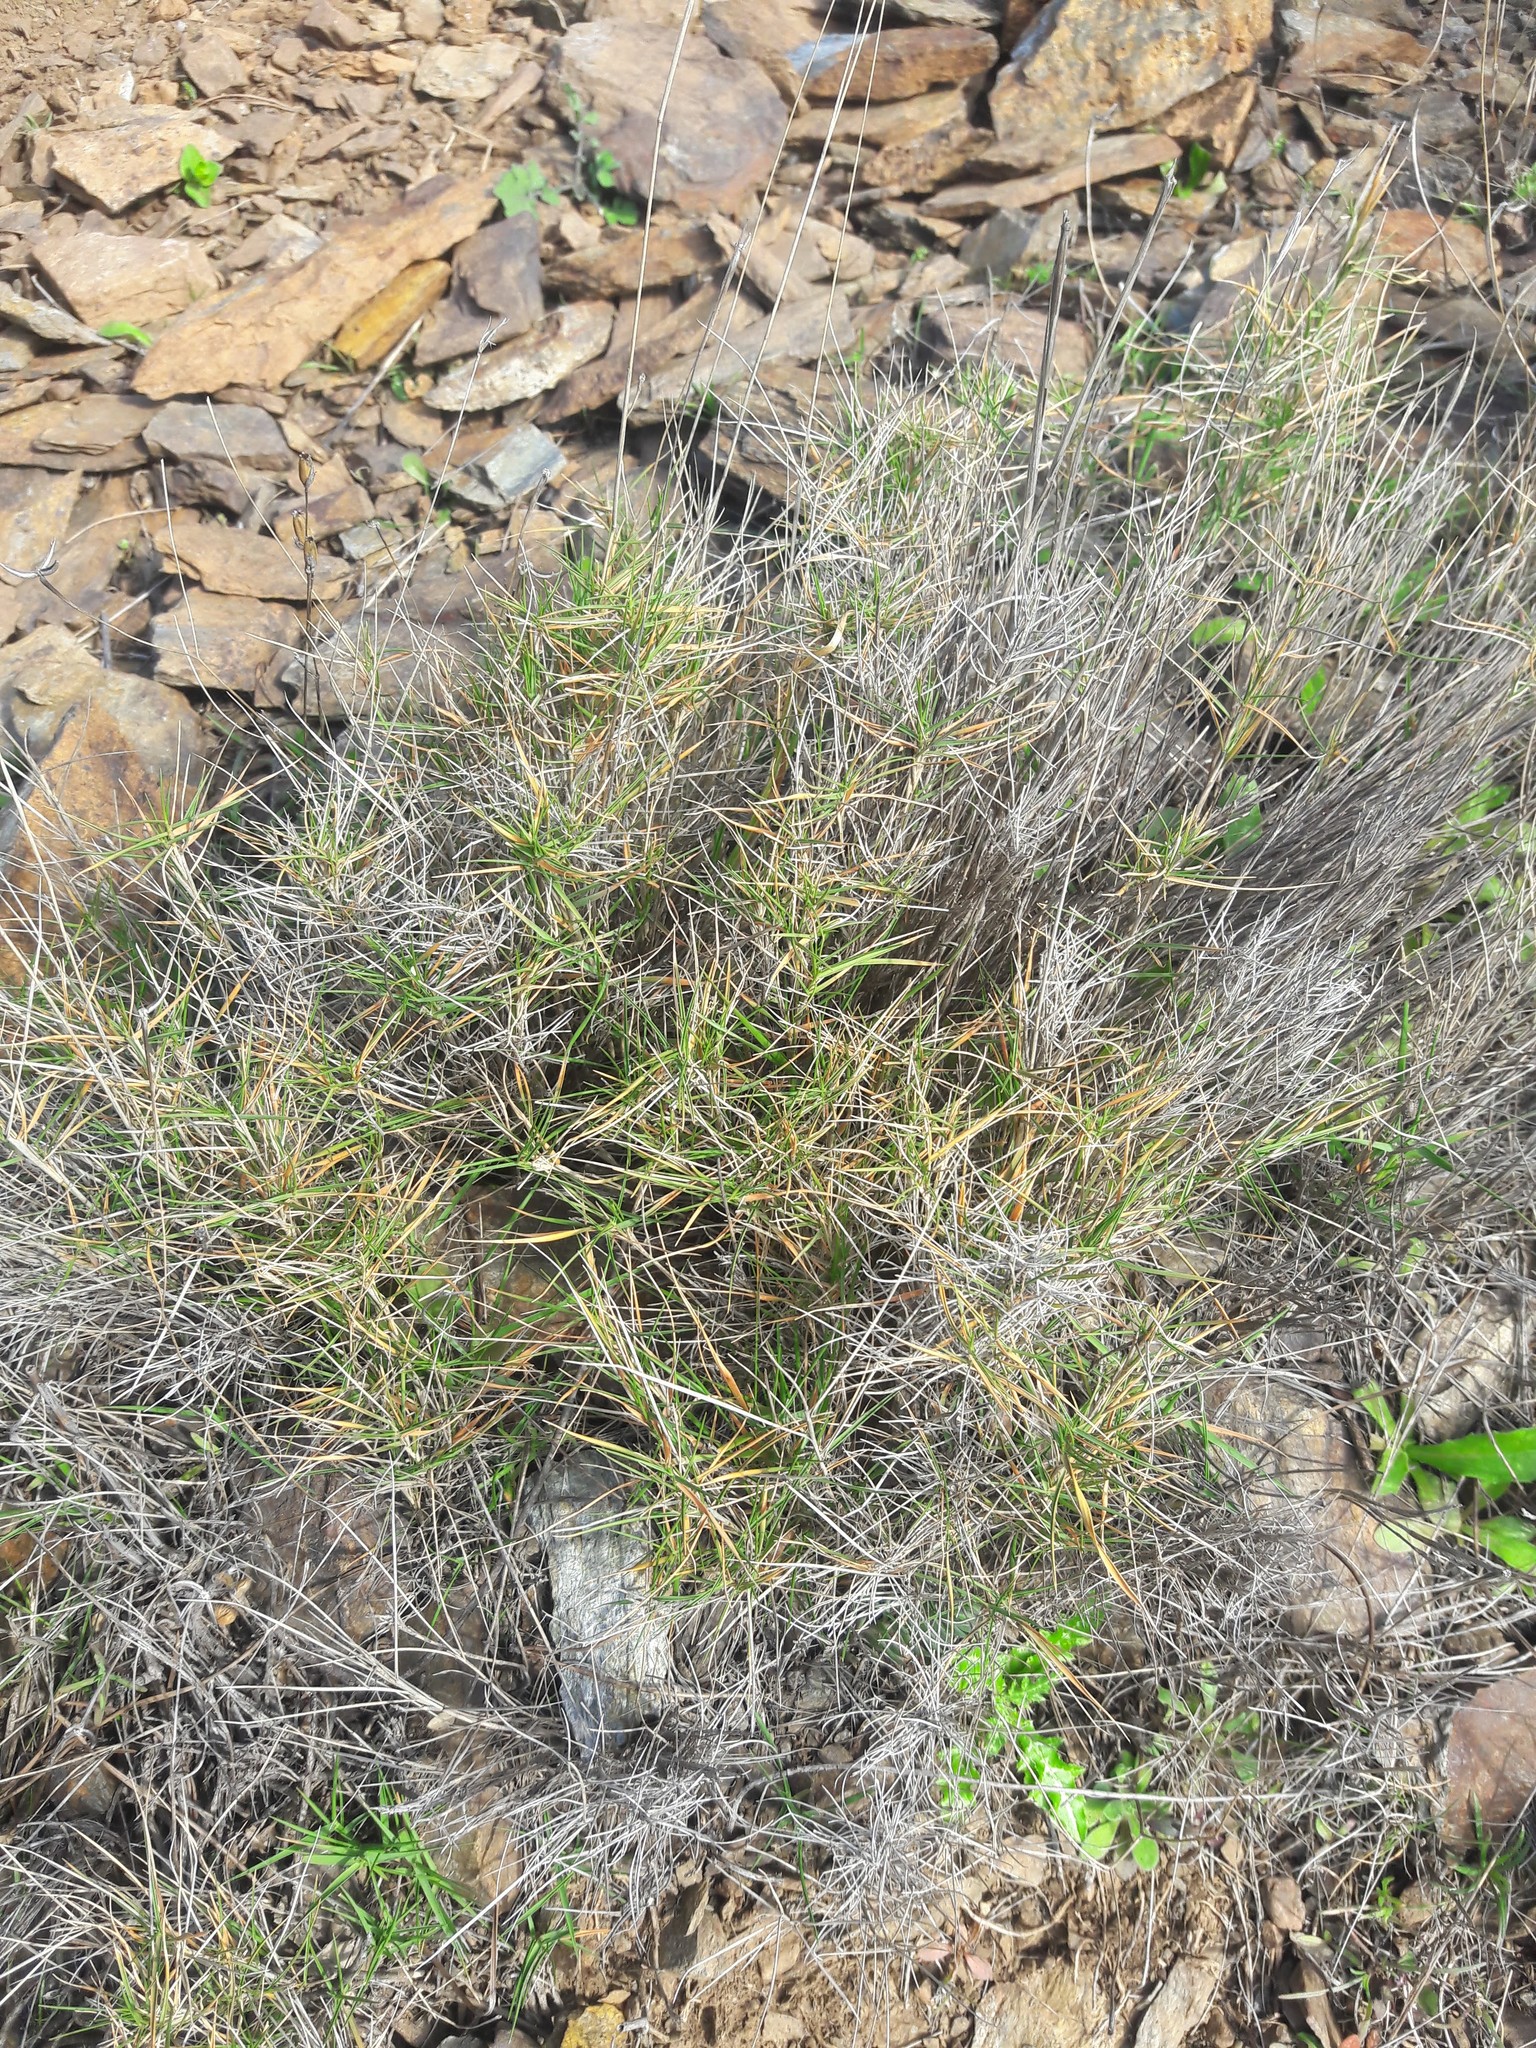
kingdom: Plantae
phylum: Tracheophyta
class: Liliopsida
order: Poales
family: Poaceae
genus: Brachypodium
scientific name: Brachypodium retusum
